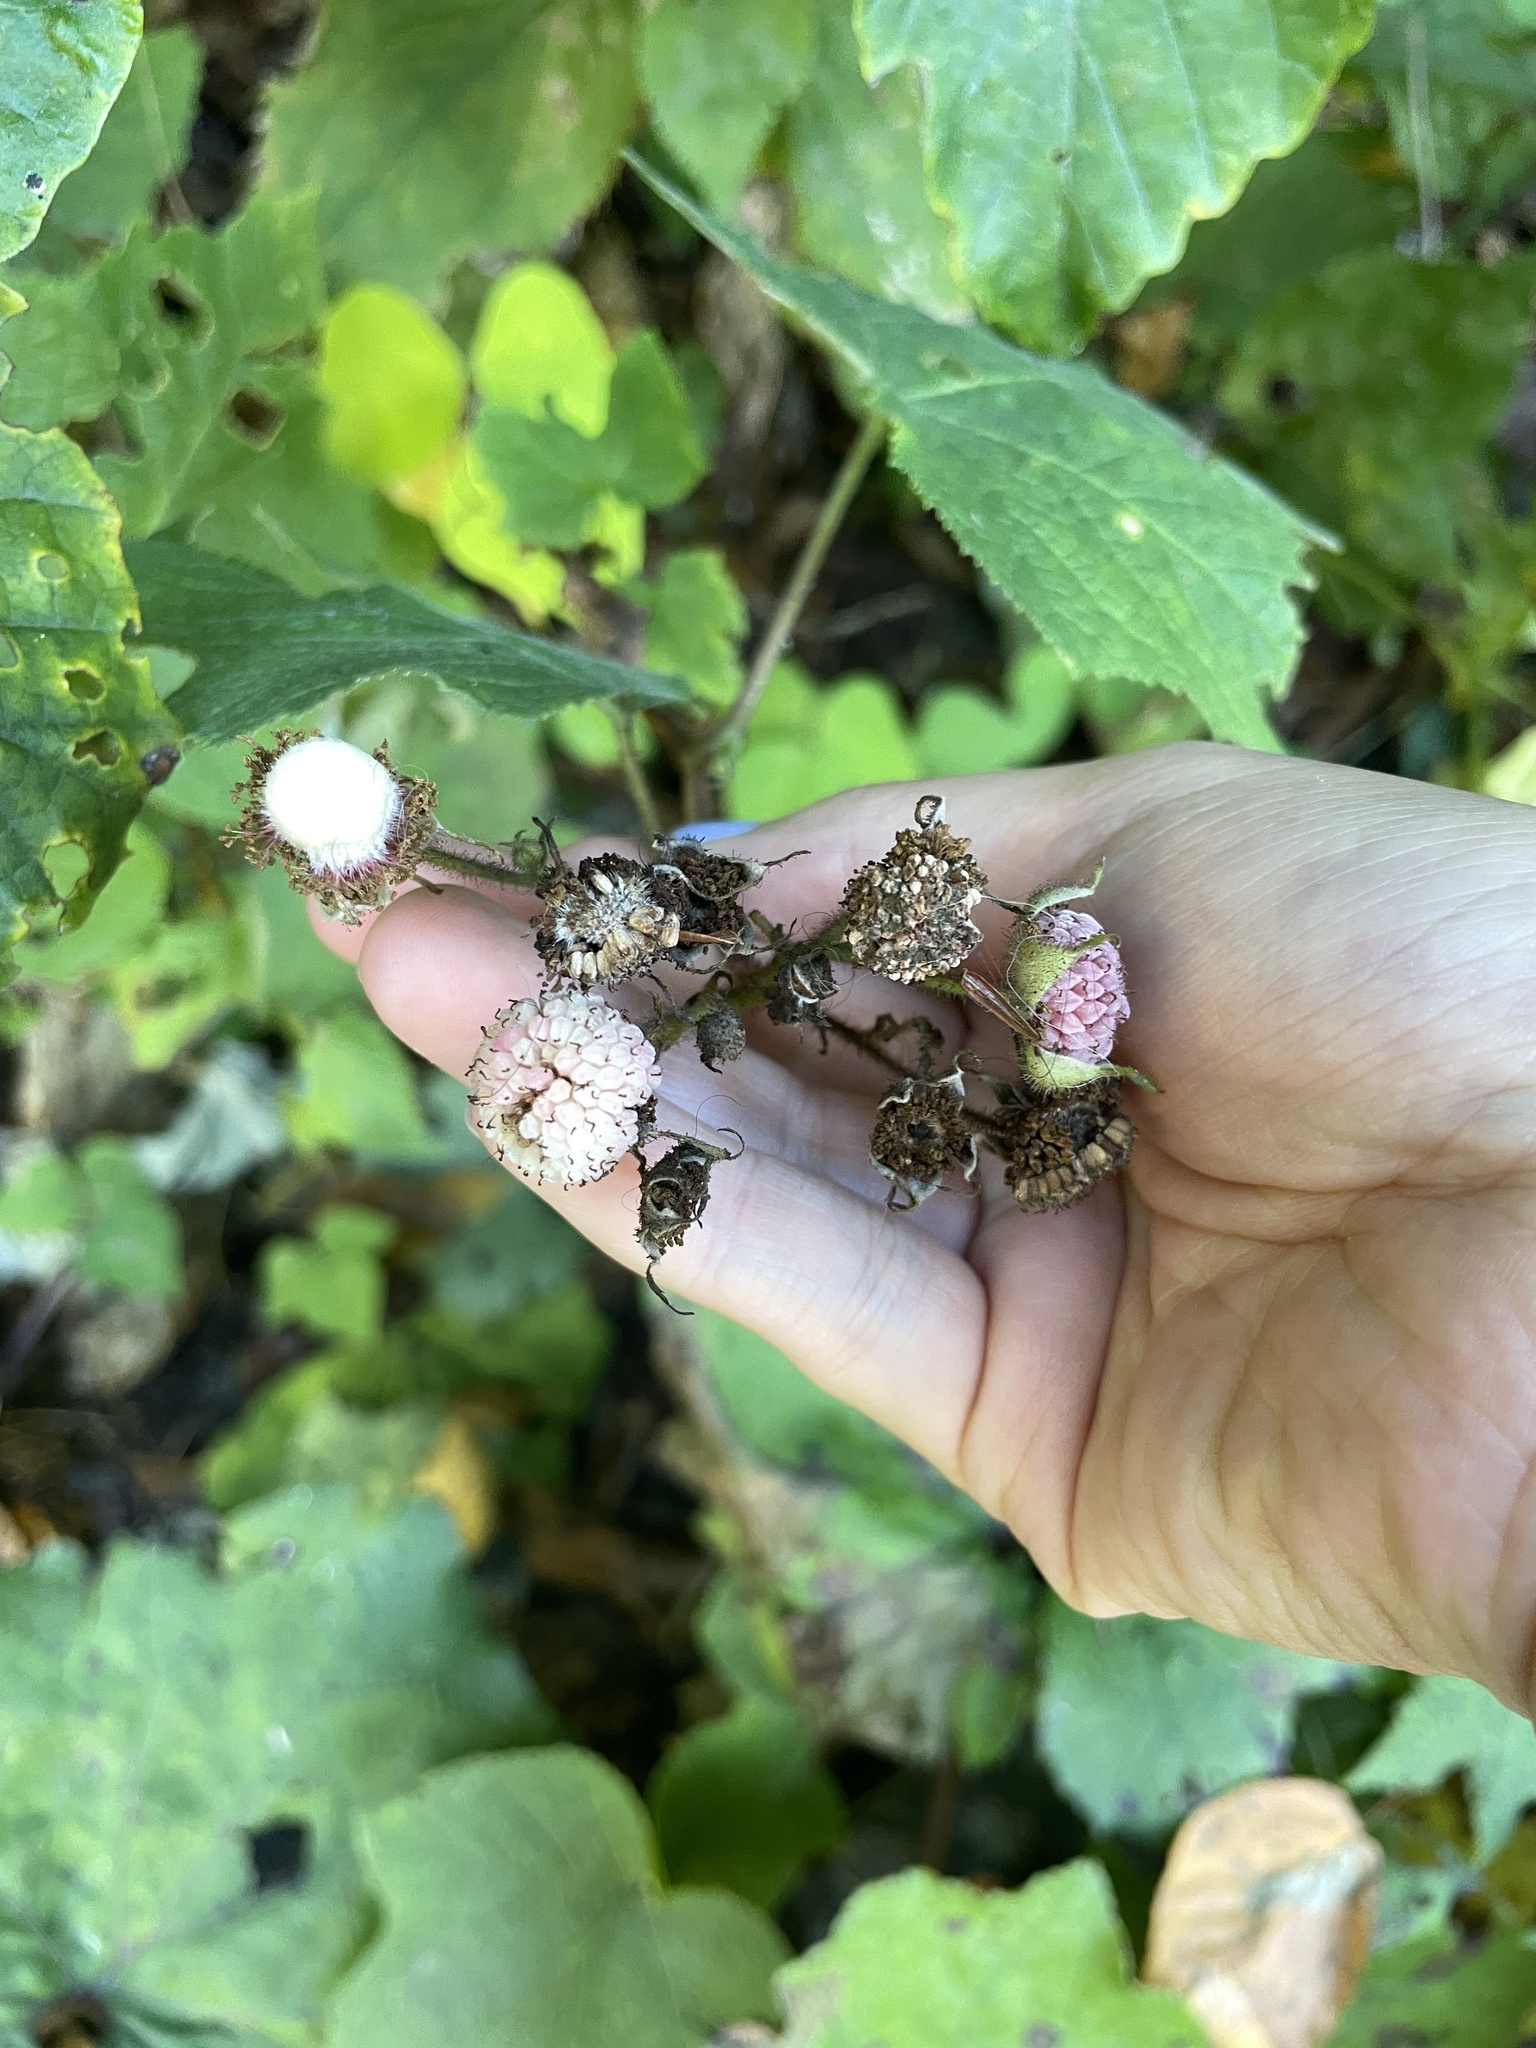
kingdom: Plantae
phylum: Tracheophyta
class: Magnoliopsida
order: Rosales
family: Rosaceae
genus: Rubus
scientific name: Rubus odoratus
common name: Purple-flowered raspberry
